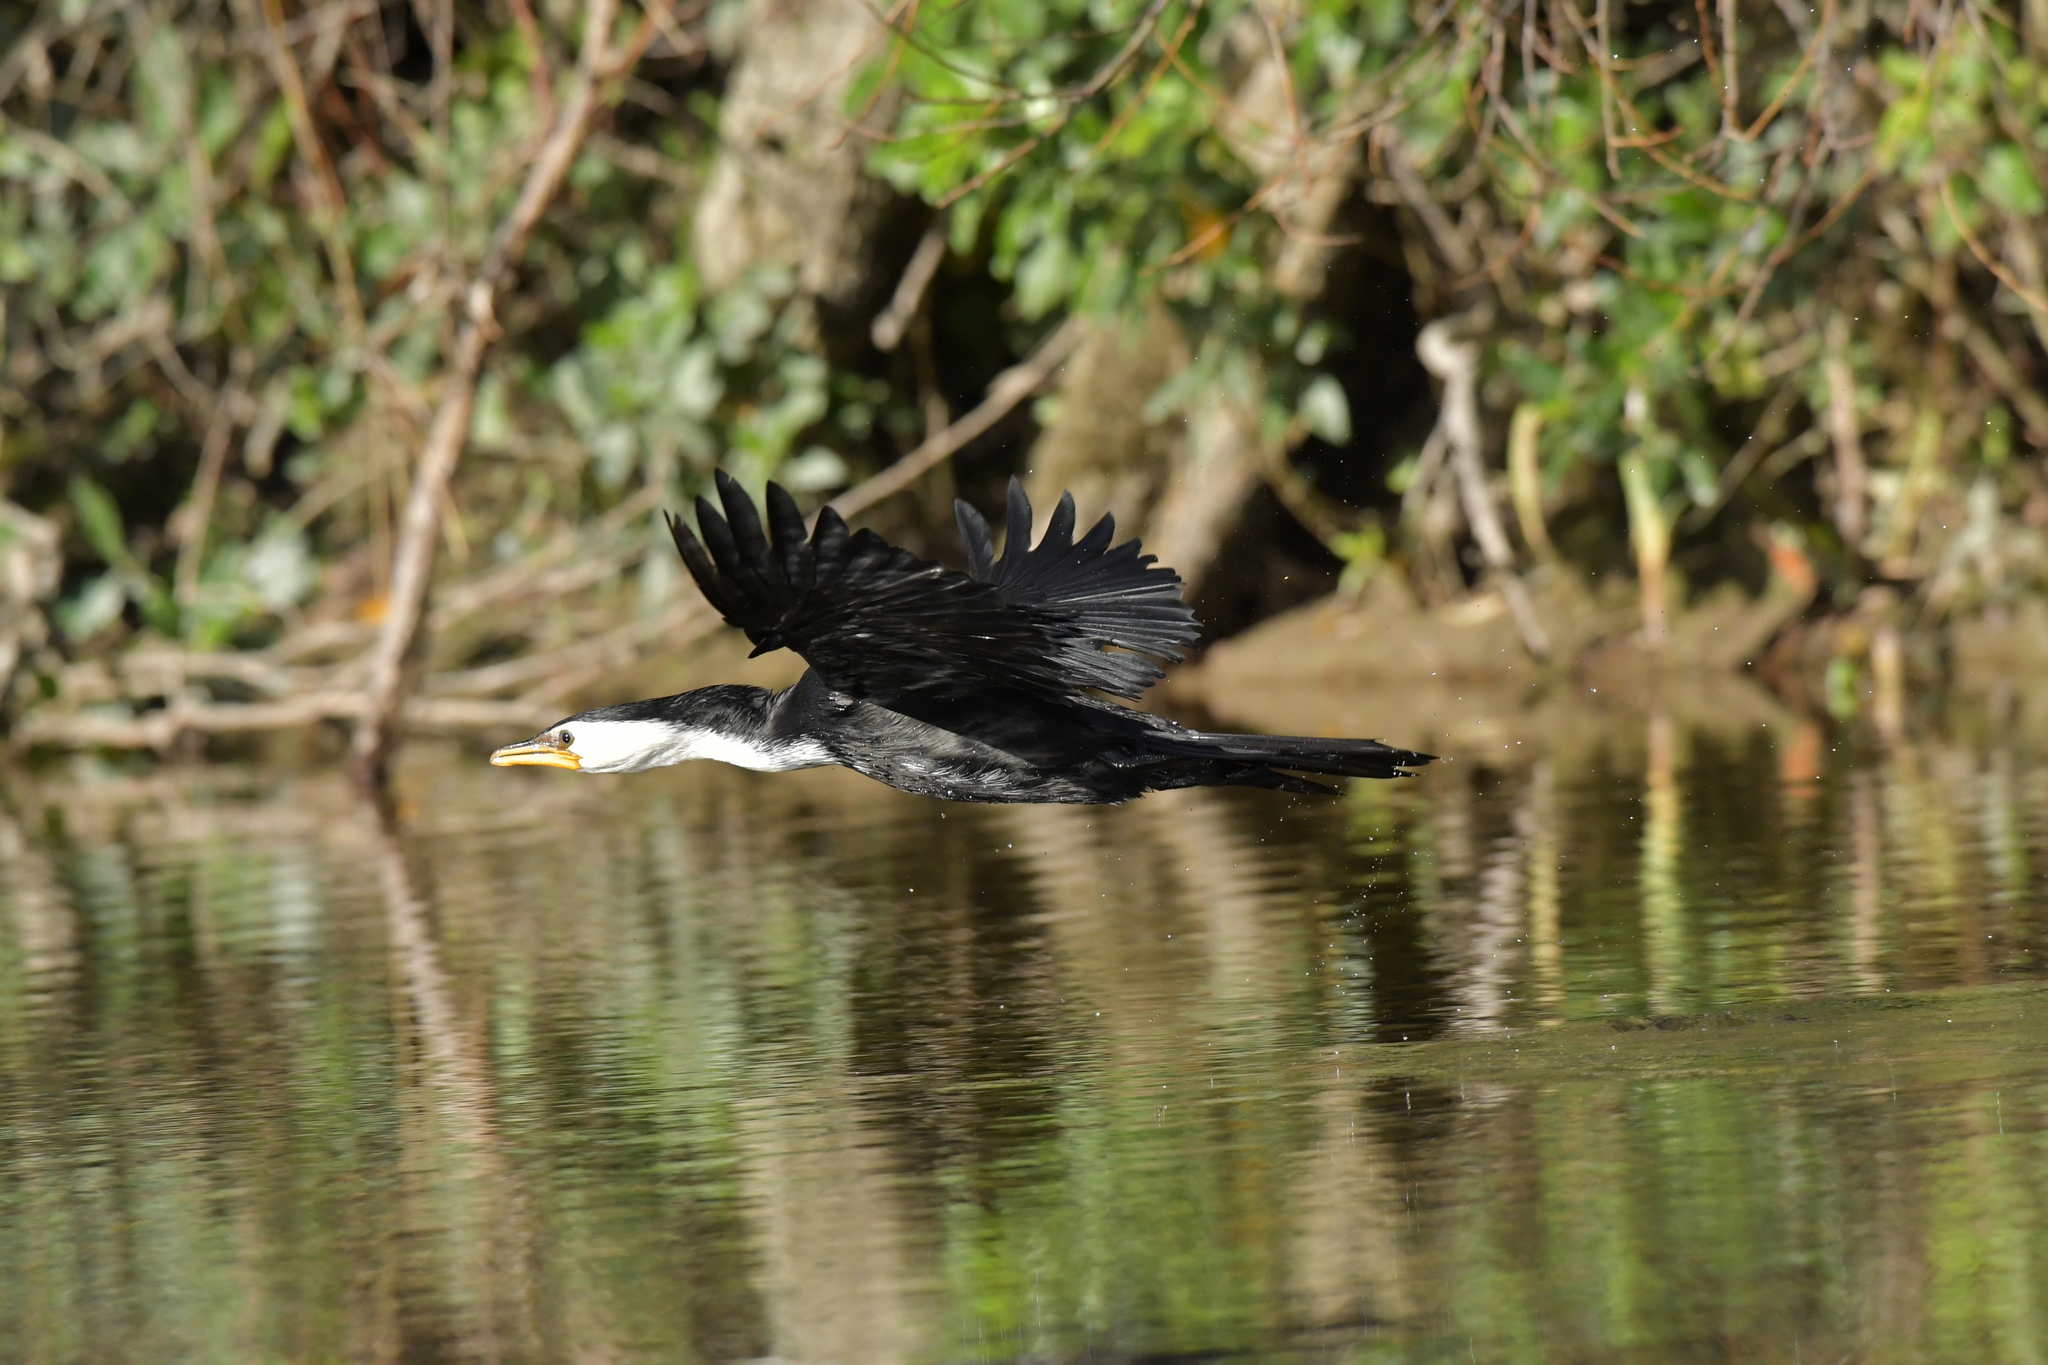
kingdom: Animalia
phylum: Chordata
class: Aves
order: Suliformes
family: Phalacrocoracidae
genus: Microcarbo
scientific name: Microcarbo melanoleucos
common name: Little pied cormorant
